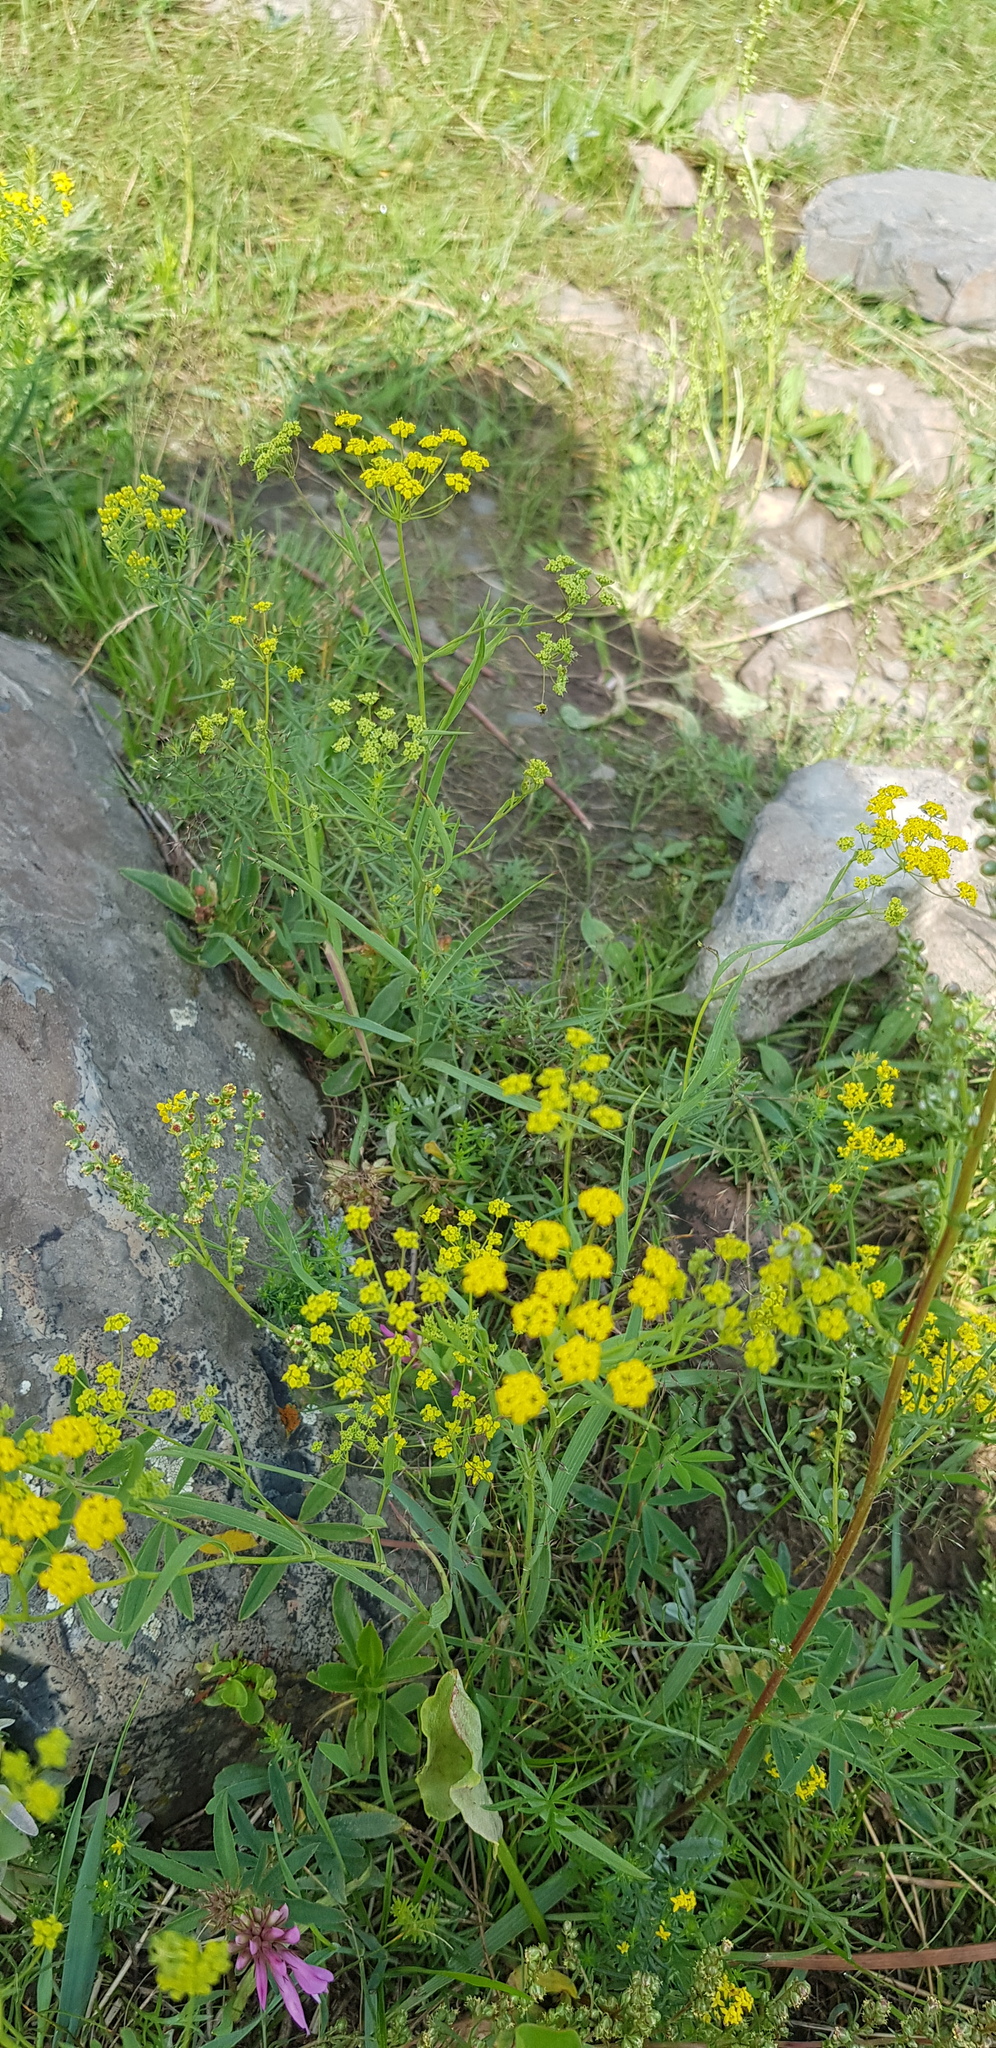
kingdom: Plantae
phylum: Tracheophyta
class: Magnoliopsida
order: Apiales
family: Apiaceae
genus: Bupleurum
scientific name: Bupleurum scorzonerifolium
